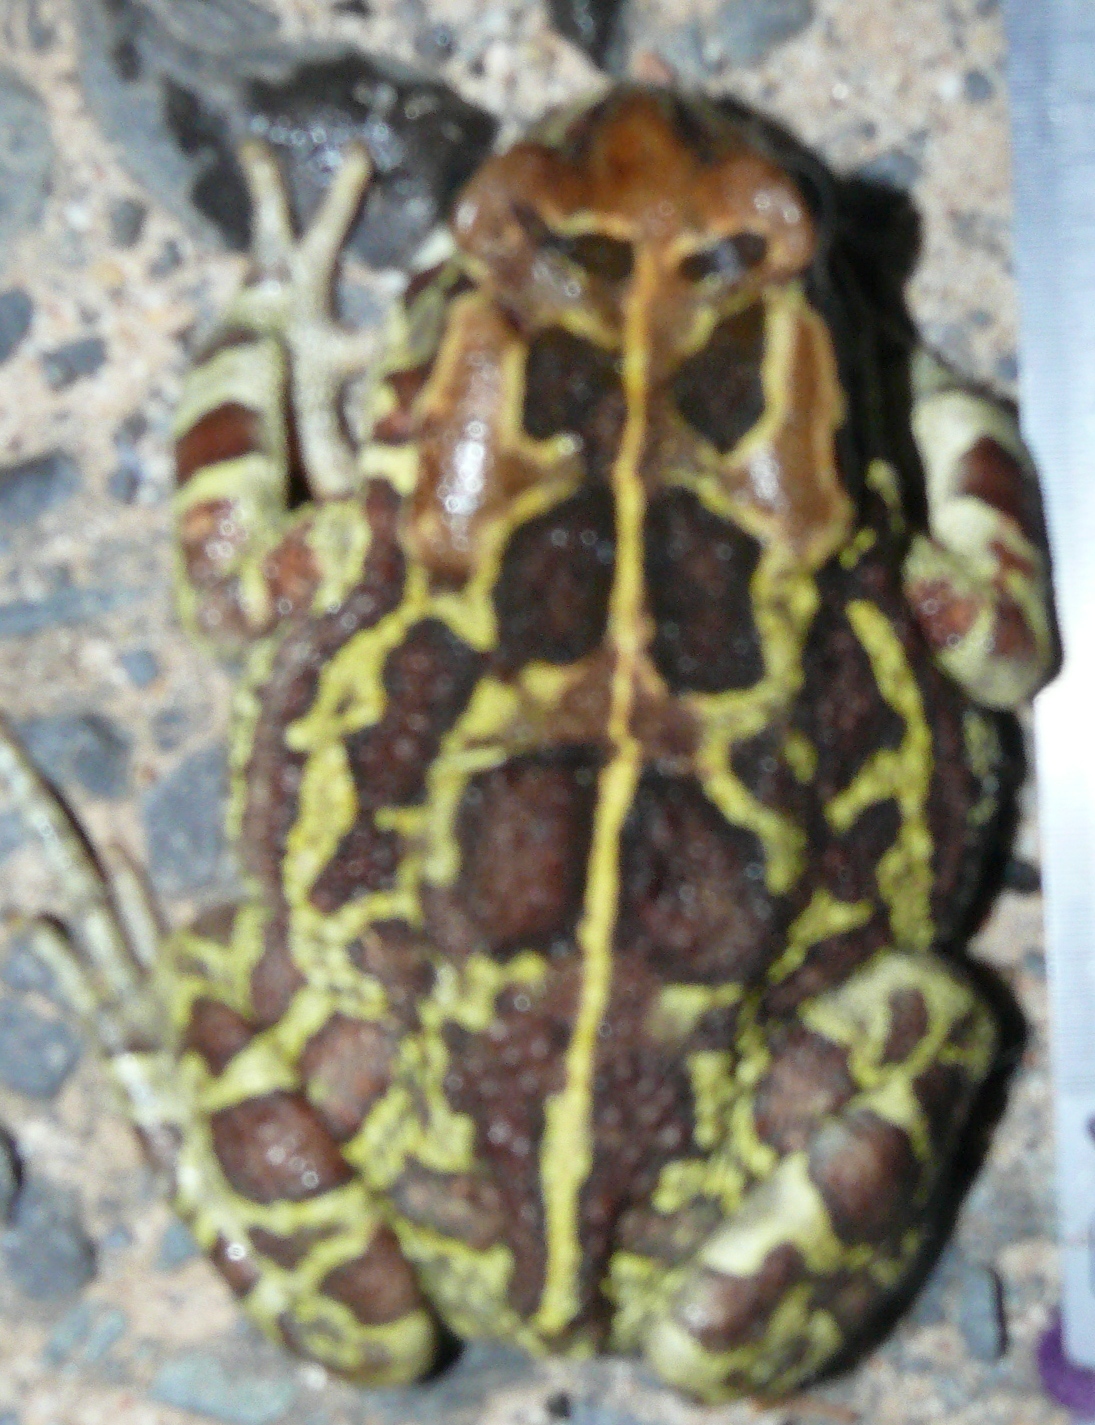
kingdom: Animalia
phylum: Chordata
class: Amphibia
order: Anura
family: Bufonidae
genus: Sclerophrys
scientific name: Sclerophrys pantherina
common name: Panther toad
